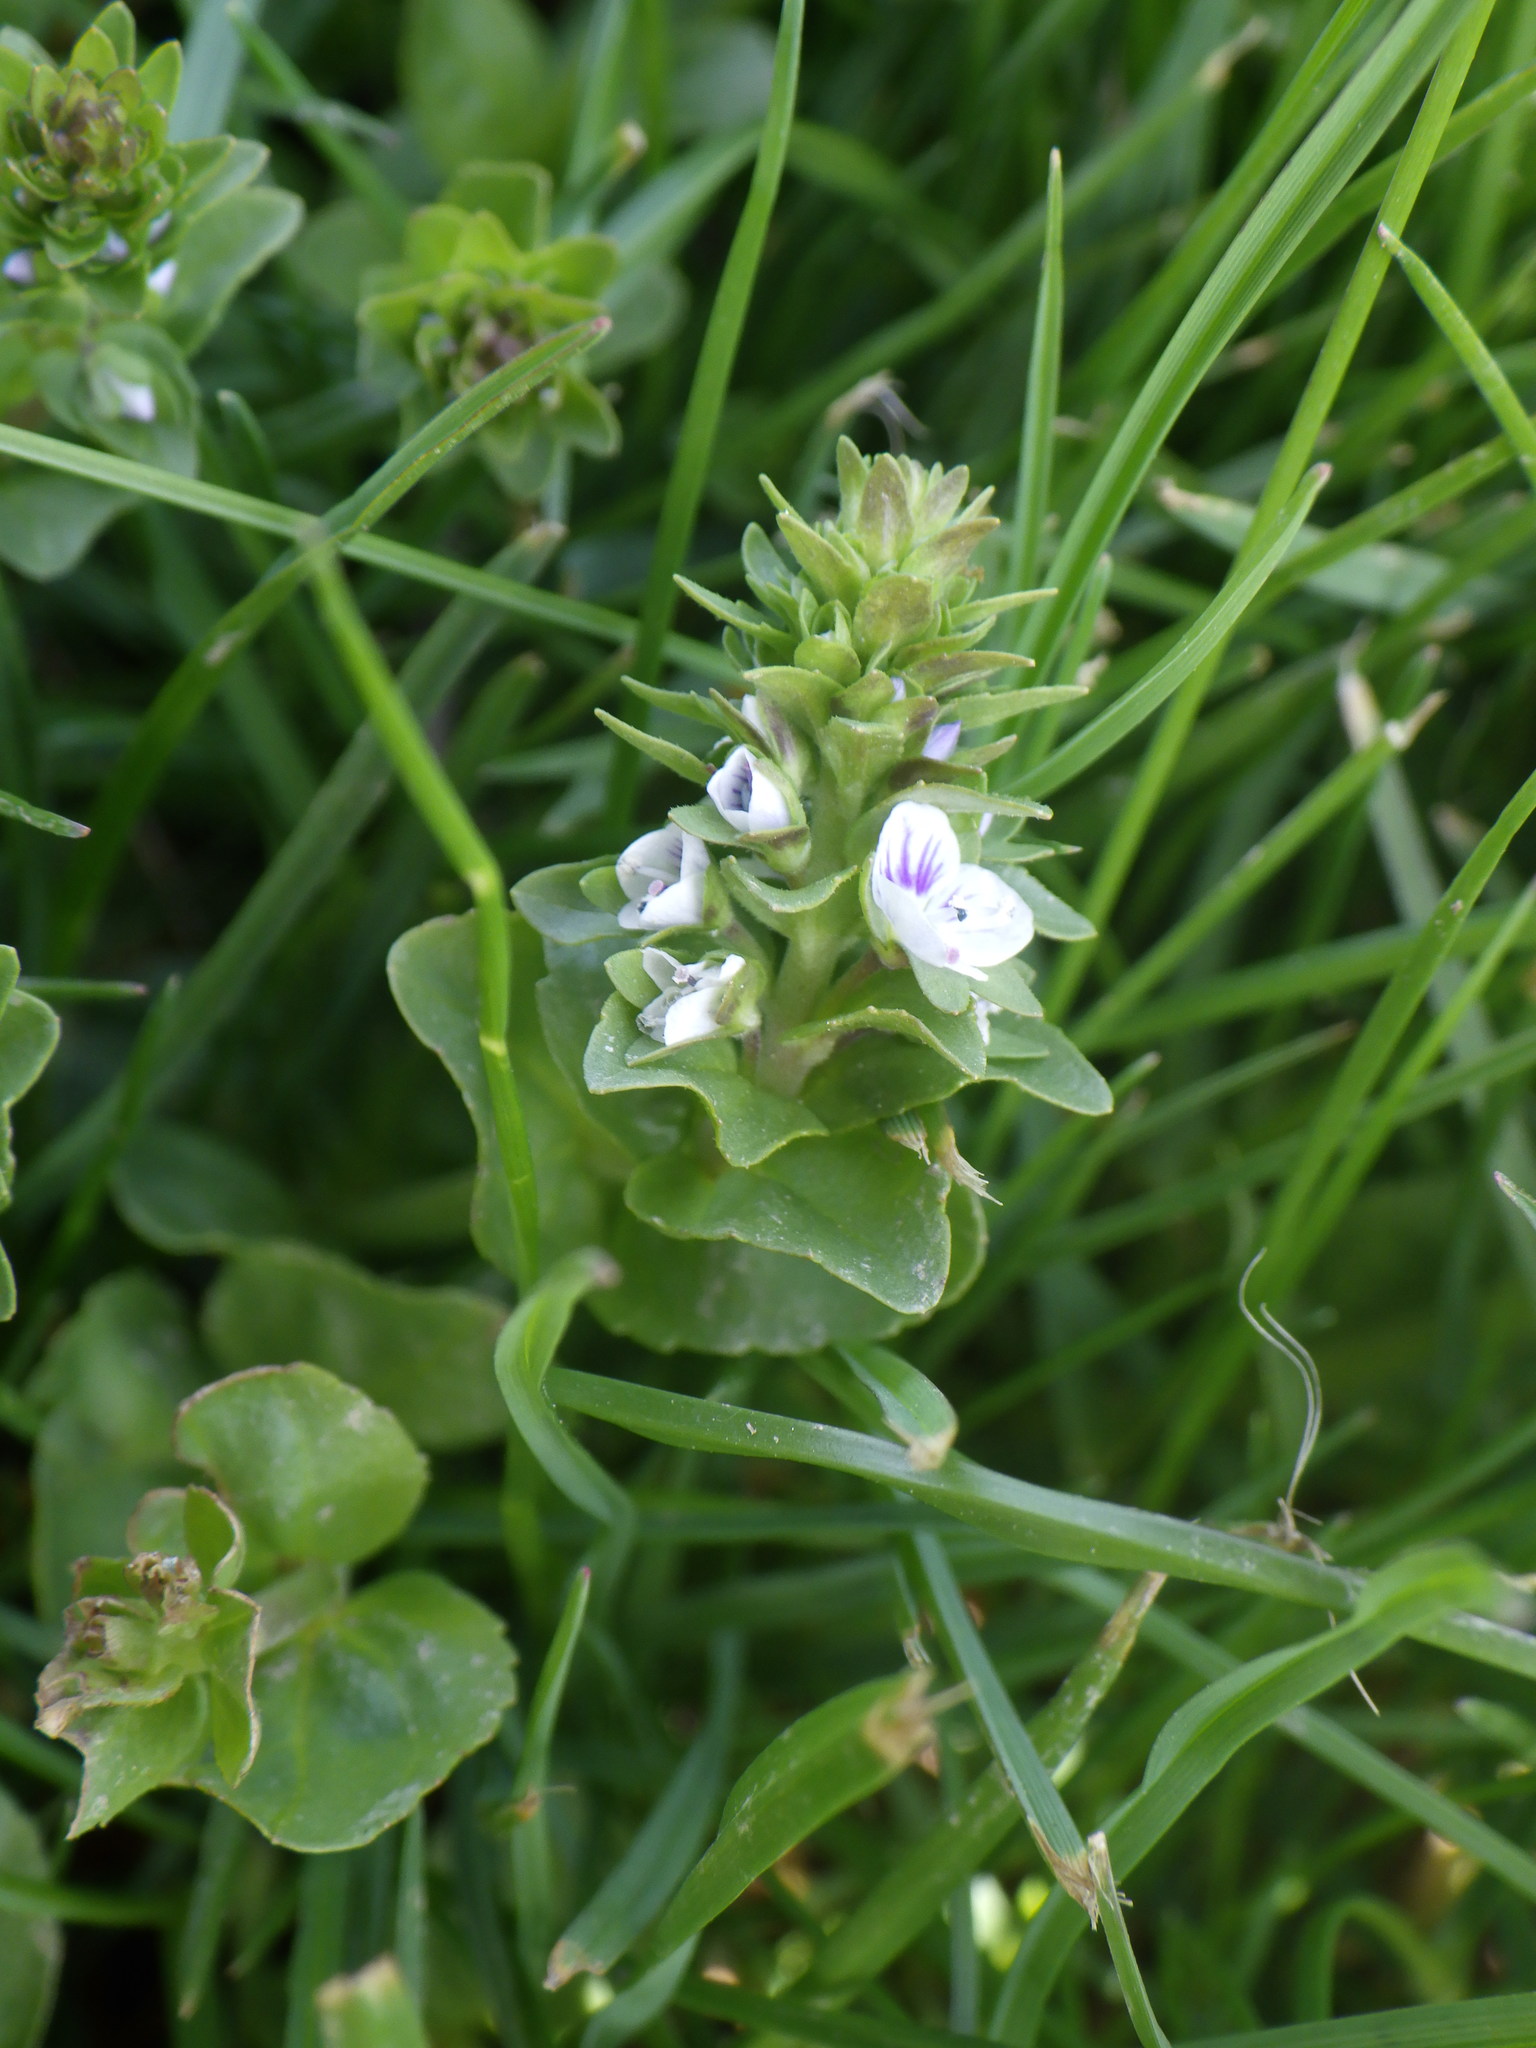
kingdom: Plantae
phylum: Tracheophyta
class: Magnoliopsida
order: Lamiales
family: Plantaginaceae
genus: Veronica
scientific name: Veronica serpyllifolia
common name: Thyme-leaved speedwell
